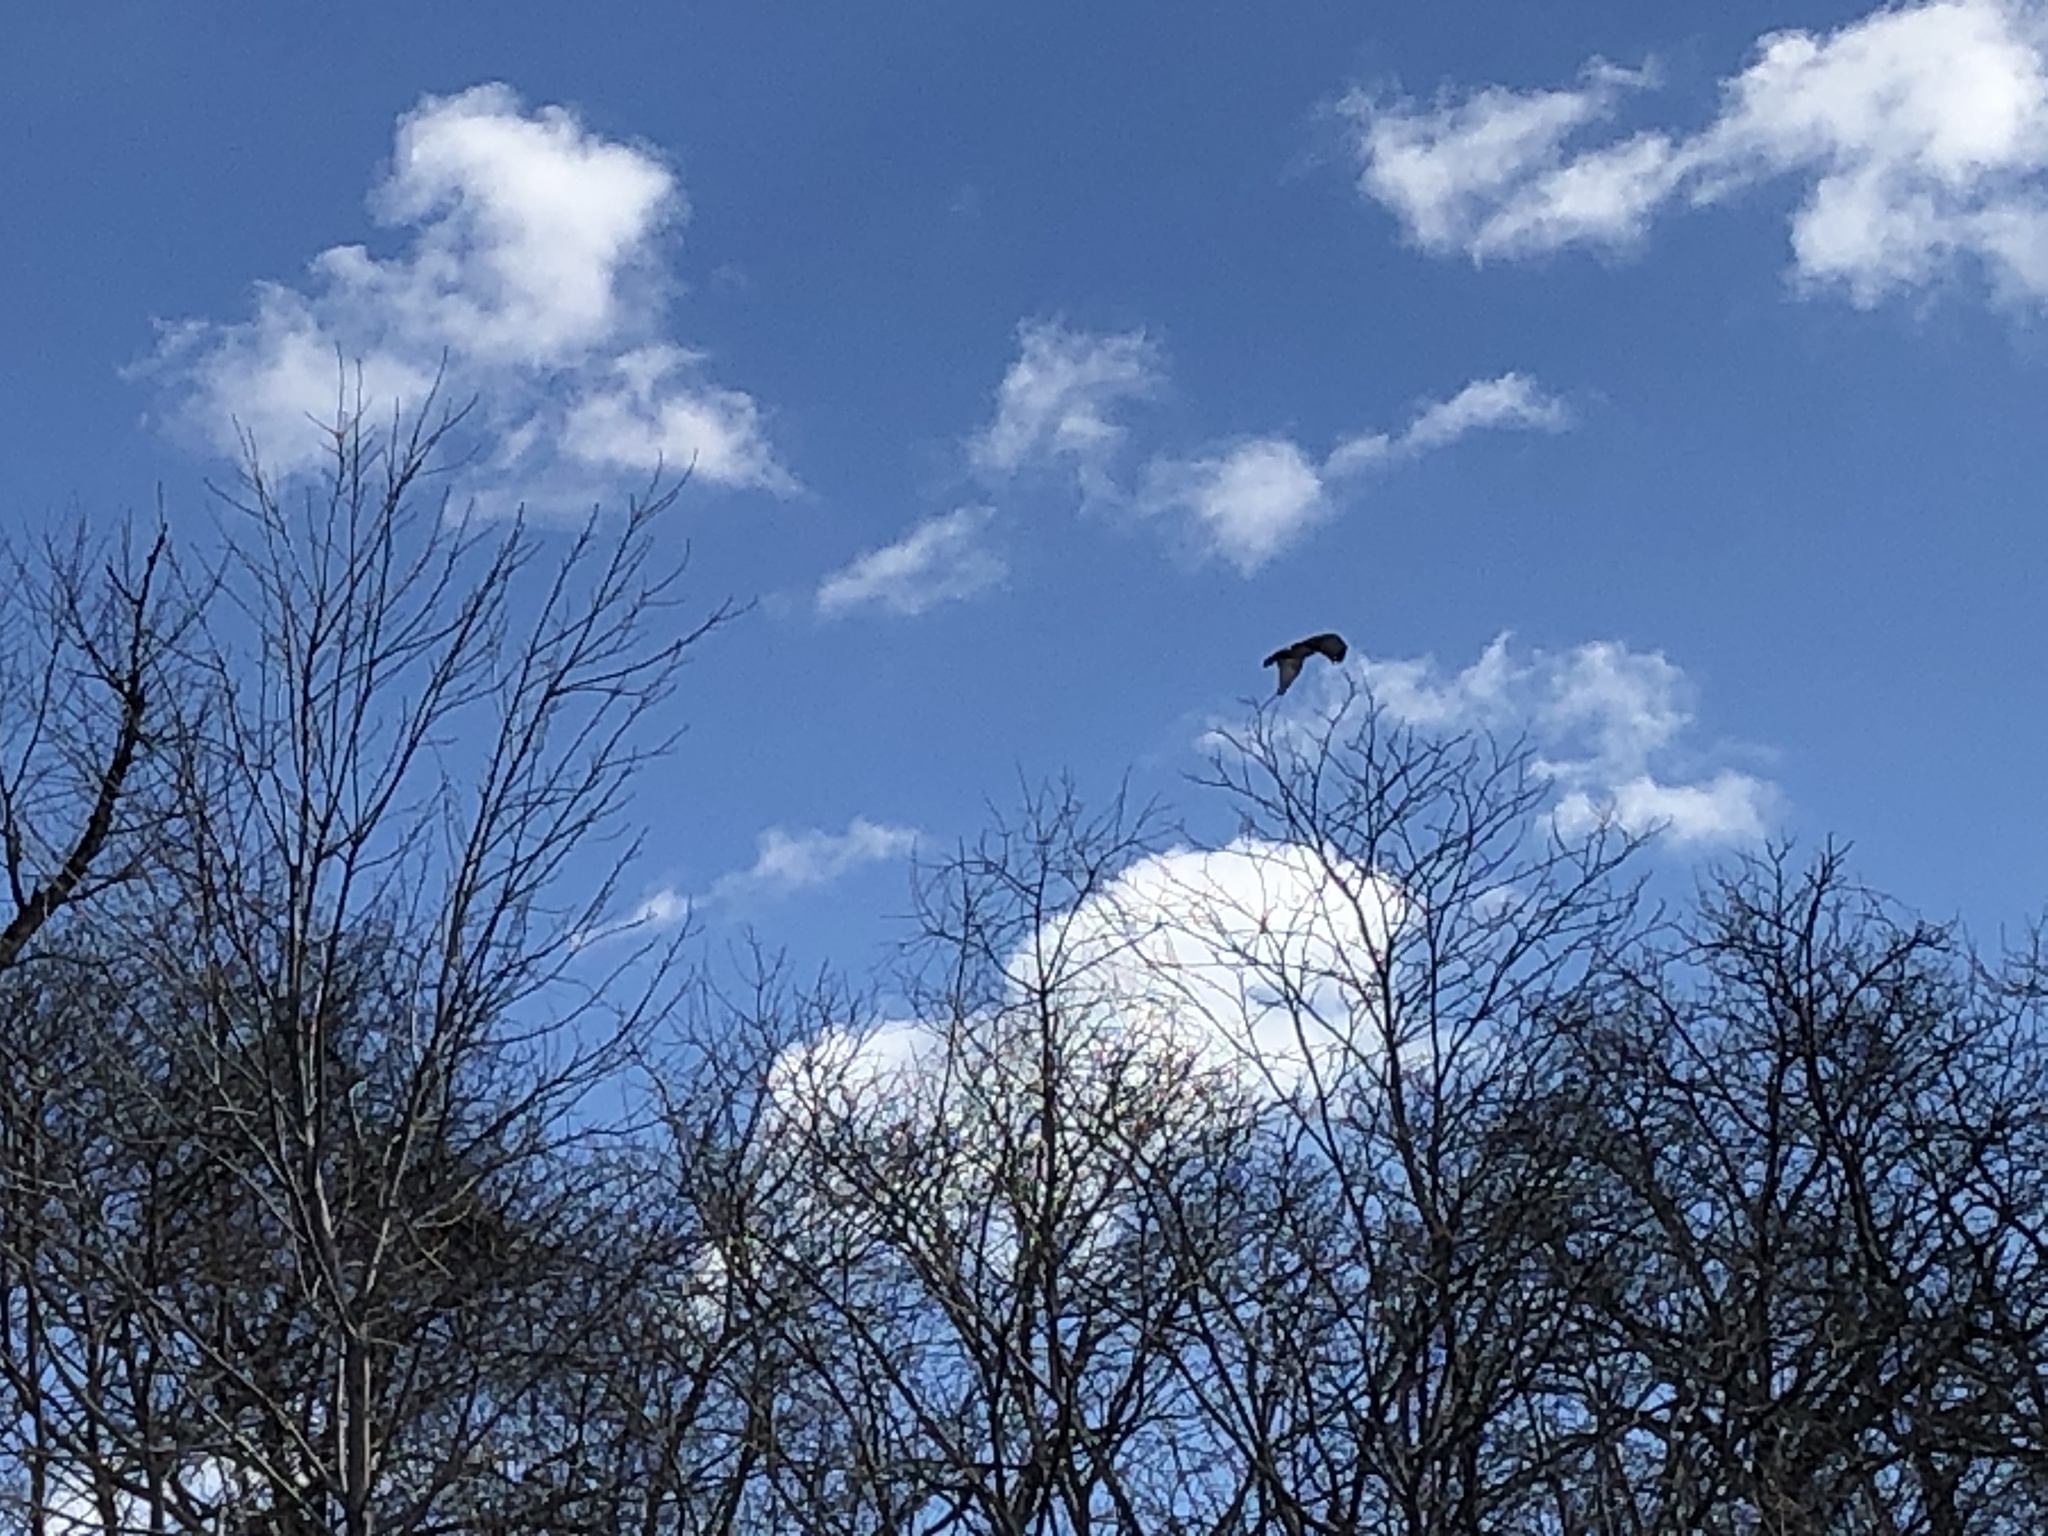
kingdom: Animalia
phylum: Chordata
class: Aves
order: Accipitriformes
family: Accipitridae
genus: Buteo
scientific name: Buteo jamaicensis
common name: Red-tailed hawk
